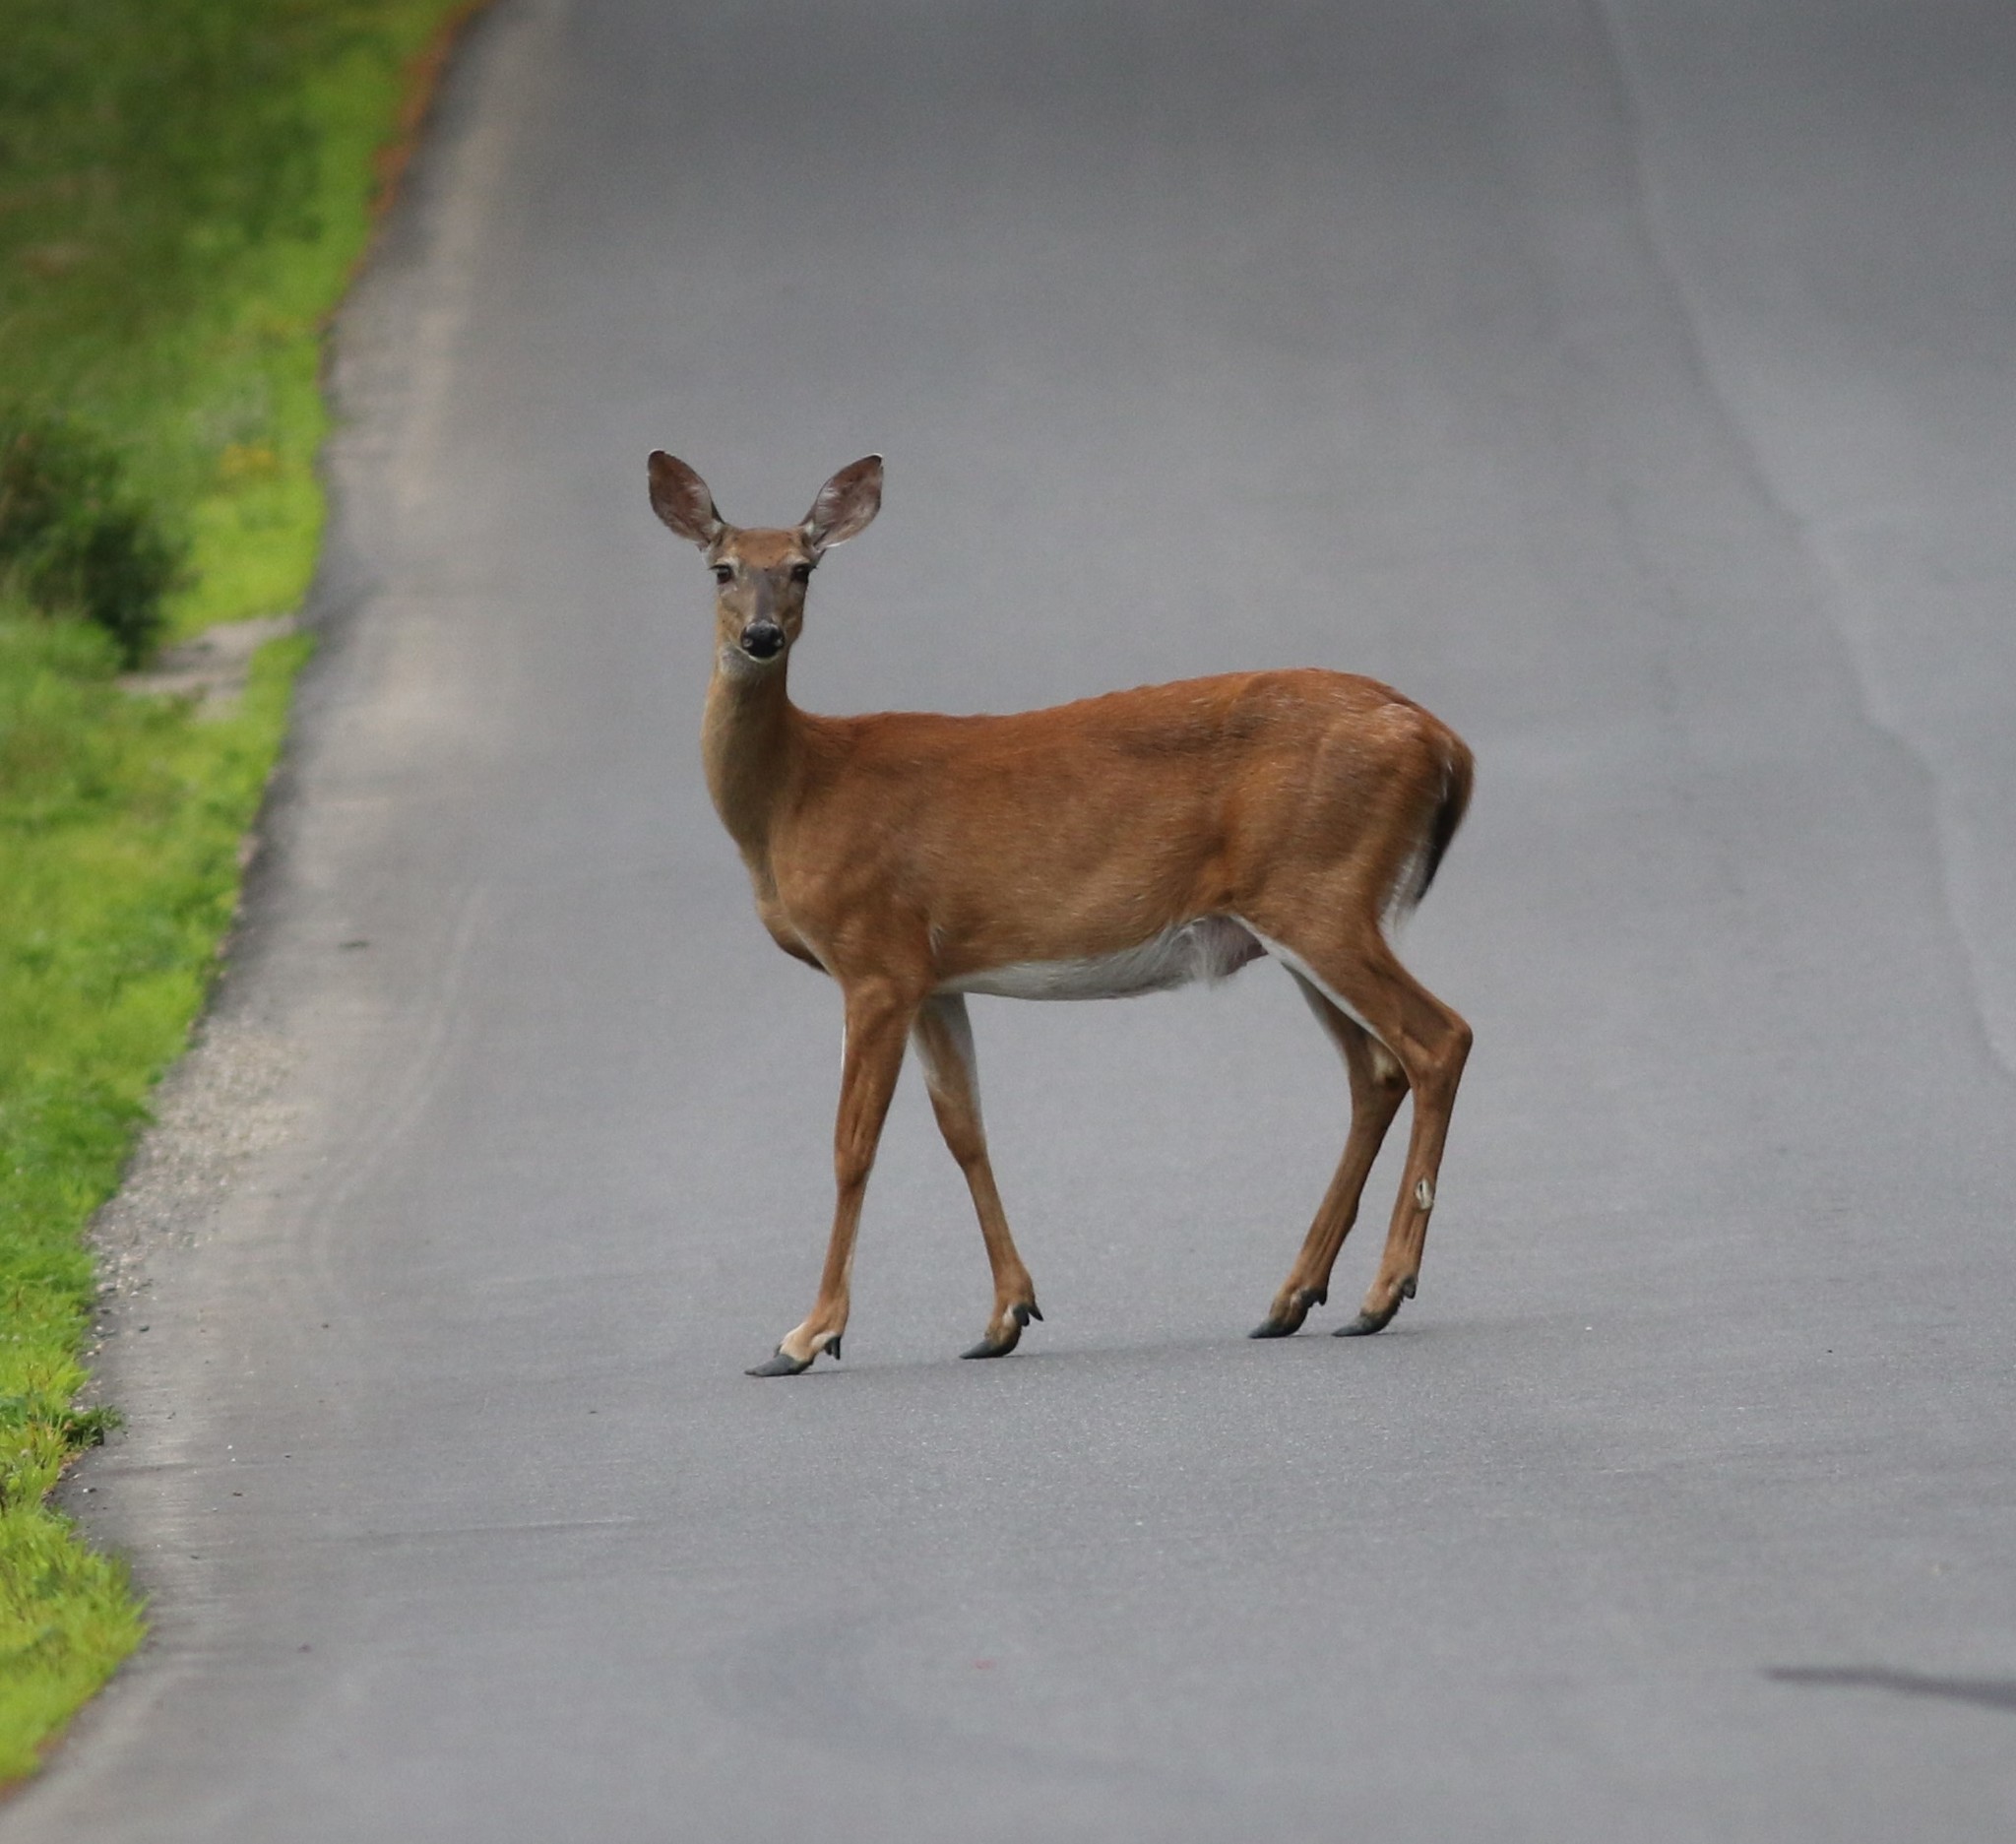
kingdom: Animalia
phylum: Chordata
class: Mammalia
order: Artiodactyla
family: Cervidae
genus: Odocoileus
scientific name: Odocoileus virginianus
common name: White-tailed deer
